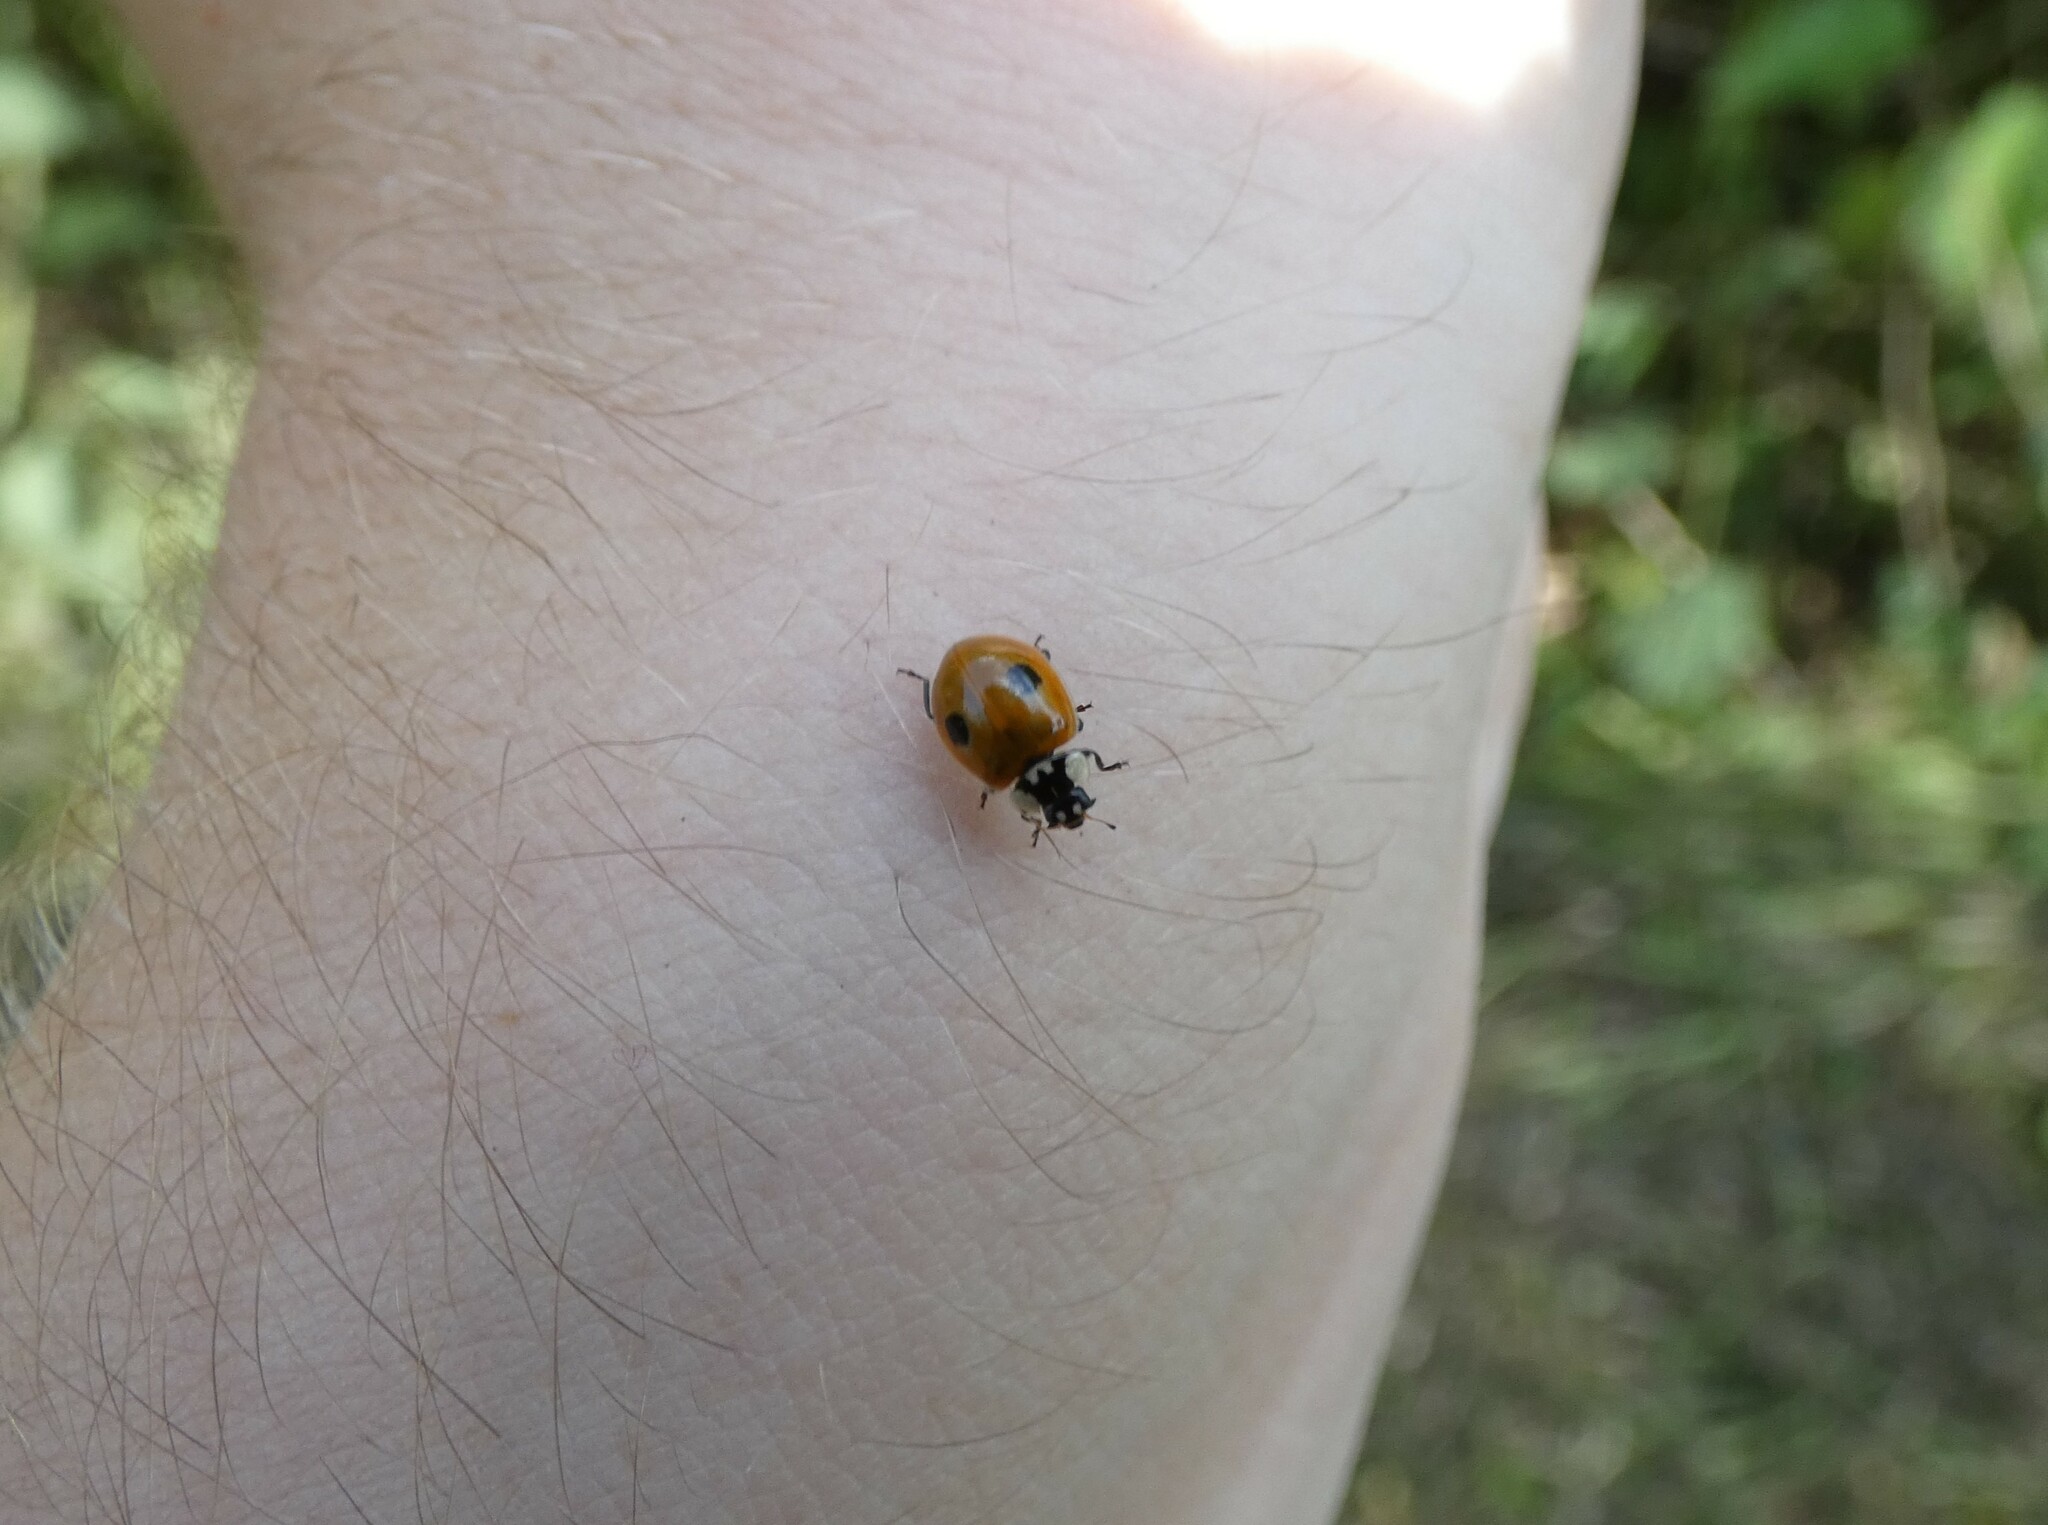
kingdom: Animalia
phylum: Arthropoda
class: Insecta
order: Coleoptera
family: Coccinellidae
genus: Adalia
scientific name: Adalia bipunctata
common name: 2-spot ladybird
